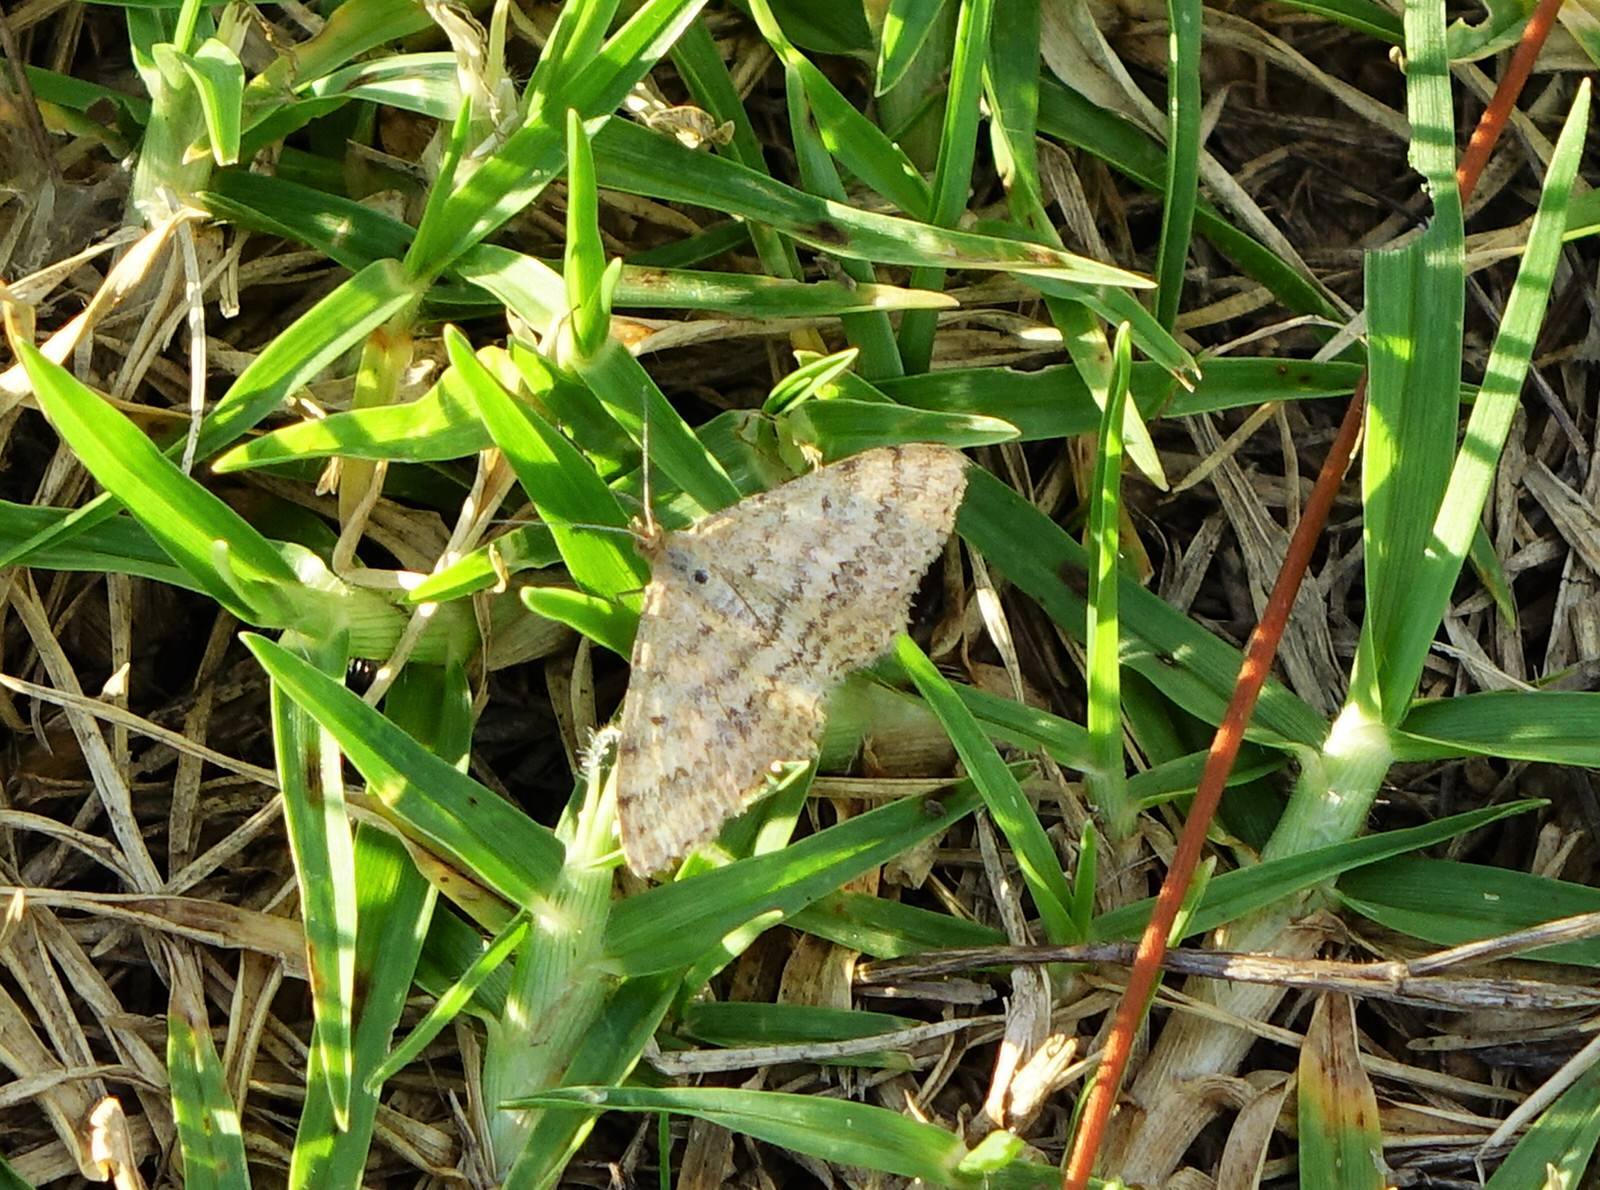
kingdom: Animalia
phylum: Arthropoda
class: Insecta
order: Lepidoptera
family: Geometridae
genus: Scopula
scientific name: Scopula rubraria
